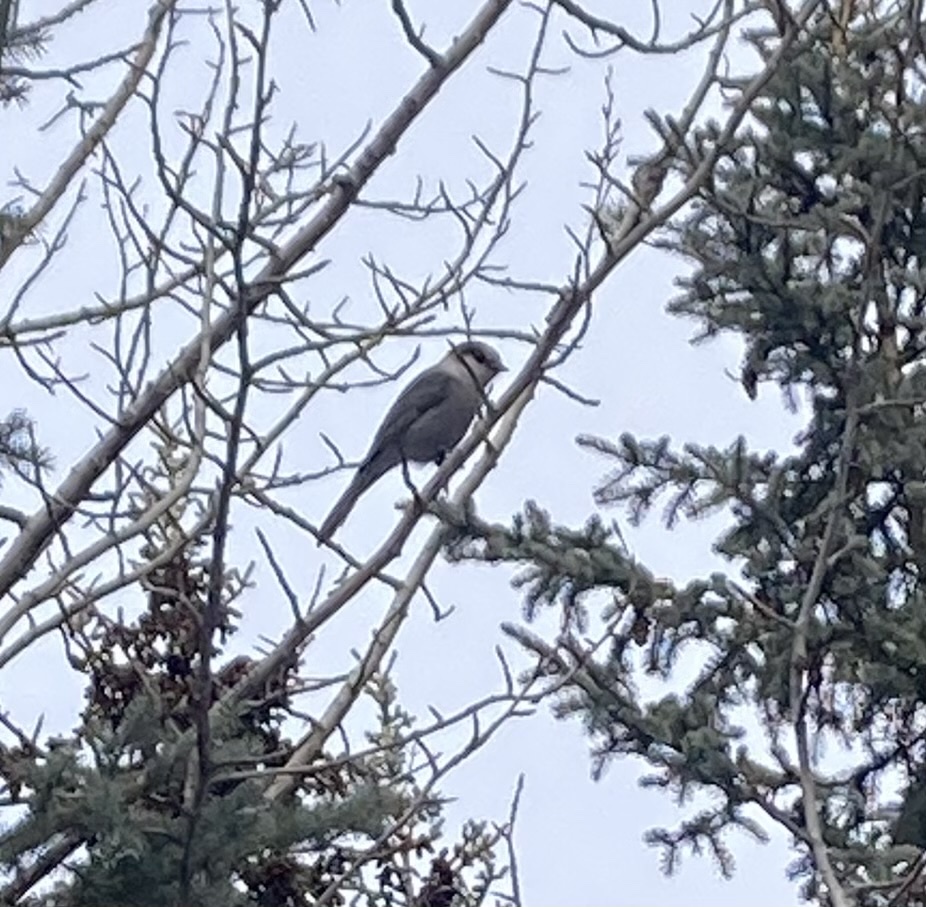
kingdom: Animalia
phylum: Chordata
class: Aves
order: Passeriformes
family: Corvidae
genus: Perisoreus
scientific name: Perisoreus canadensis
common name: Gray jay
